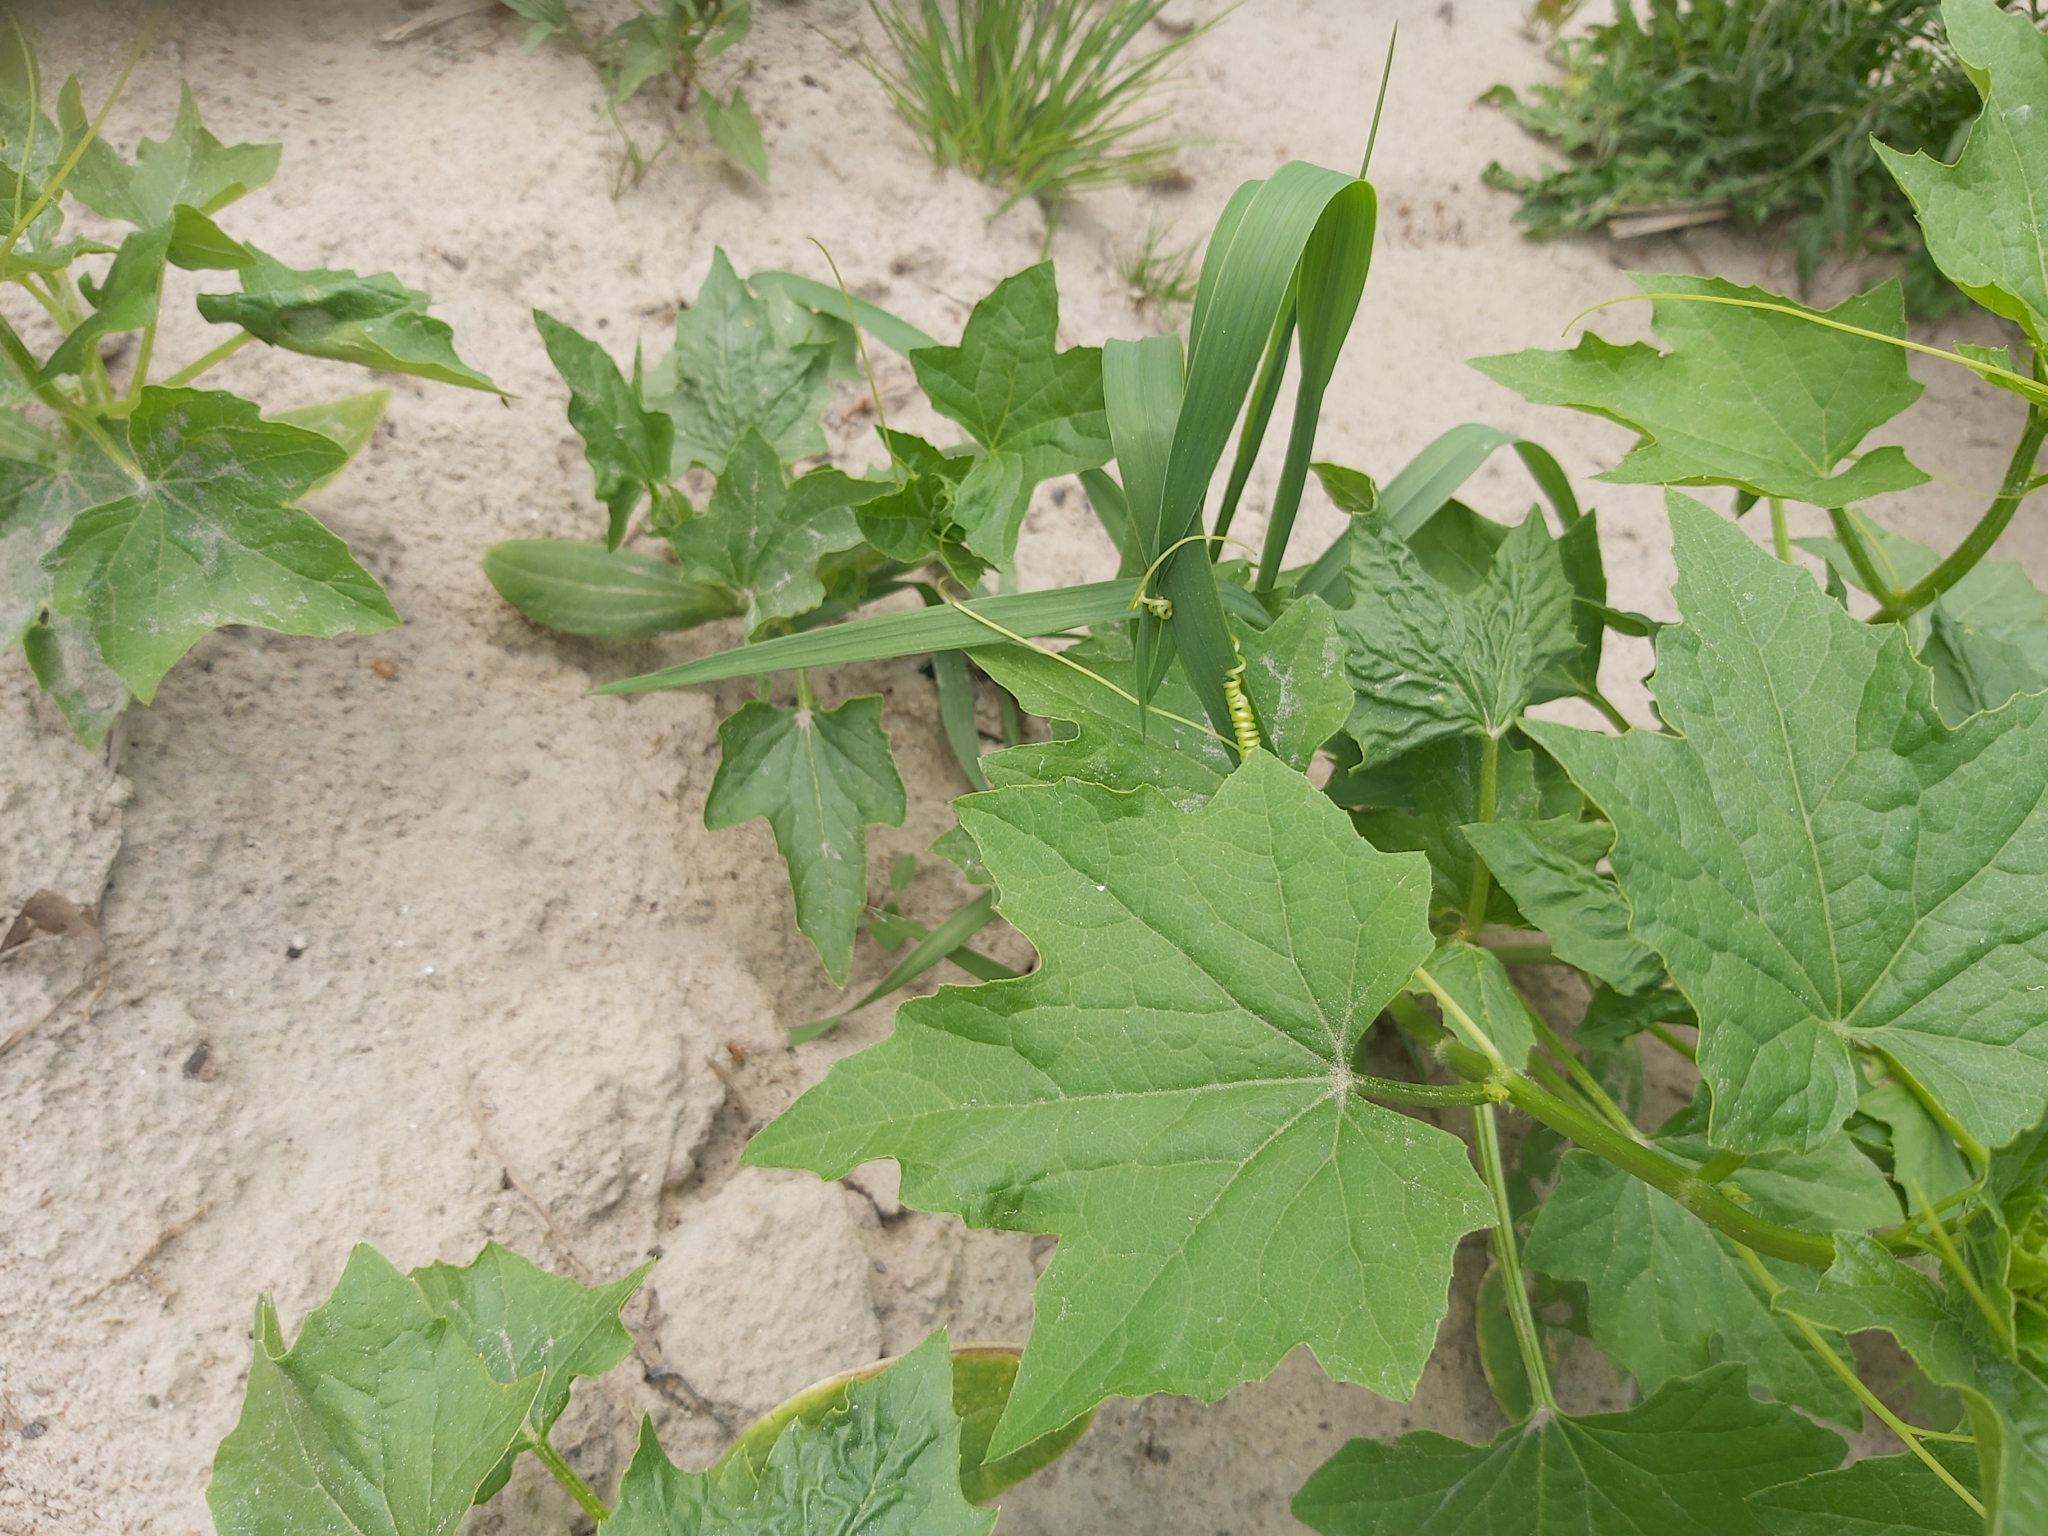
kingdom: Plantae
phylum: Tracheophyta
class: Magnoliopsida
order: Cucurbitales
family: Cucurbitaceae
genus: Echinocystis
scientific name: Echinocystis lobata
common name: Wild cucumber
